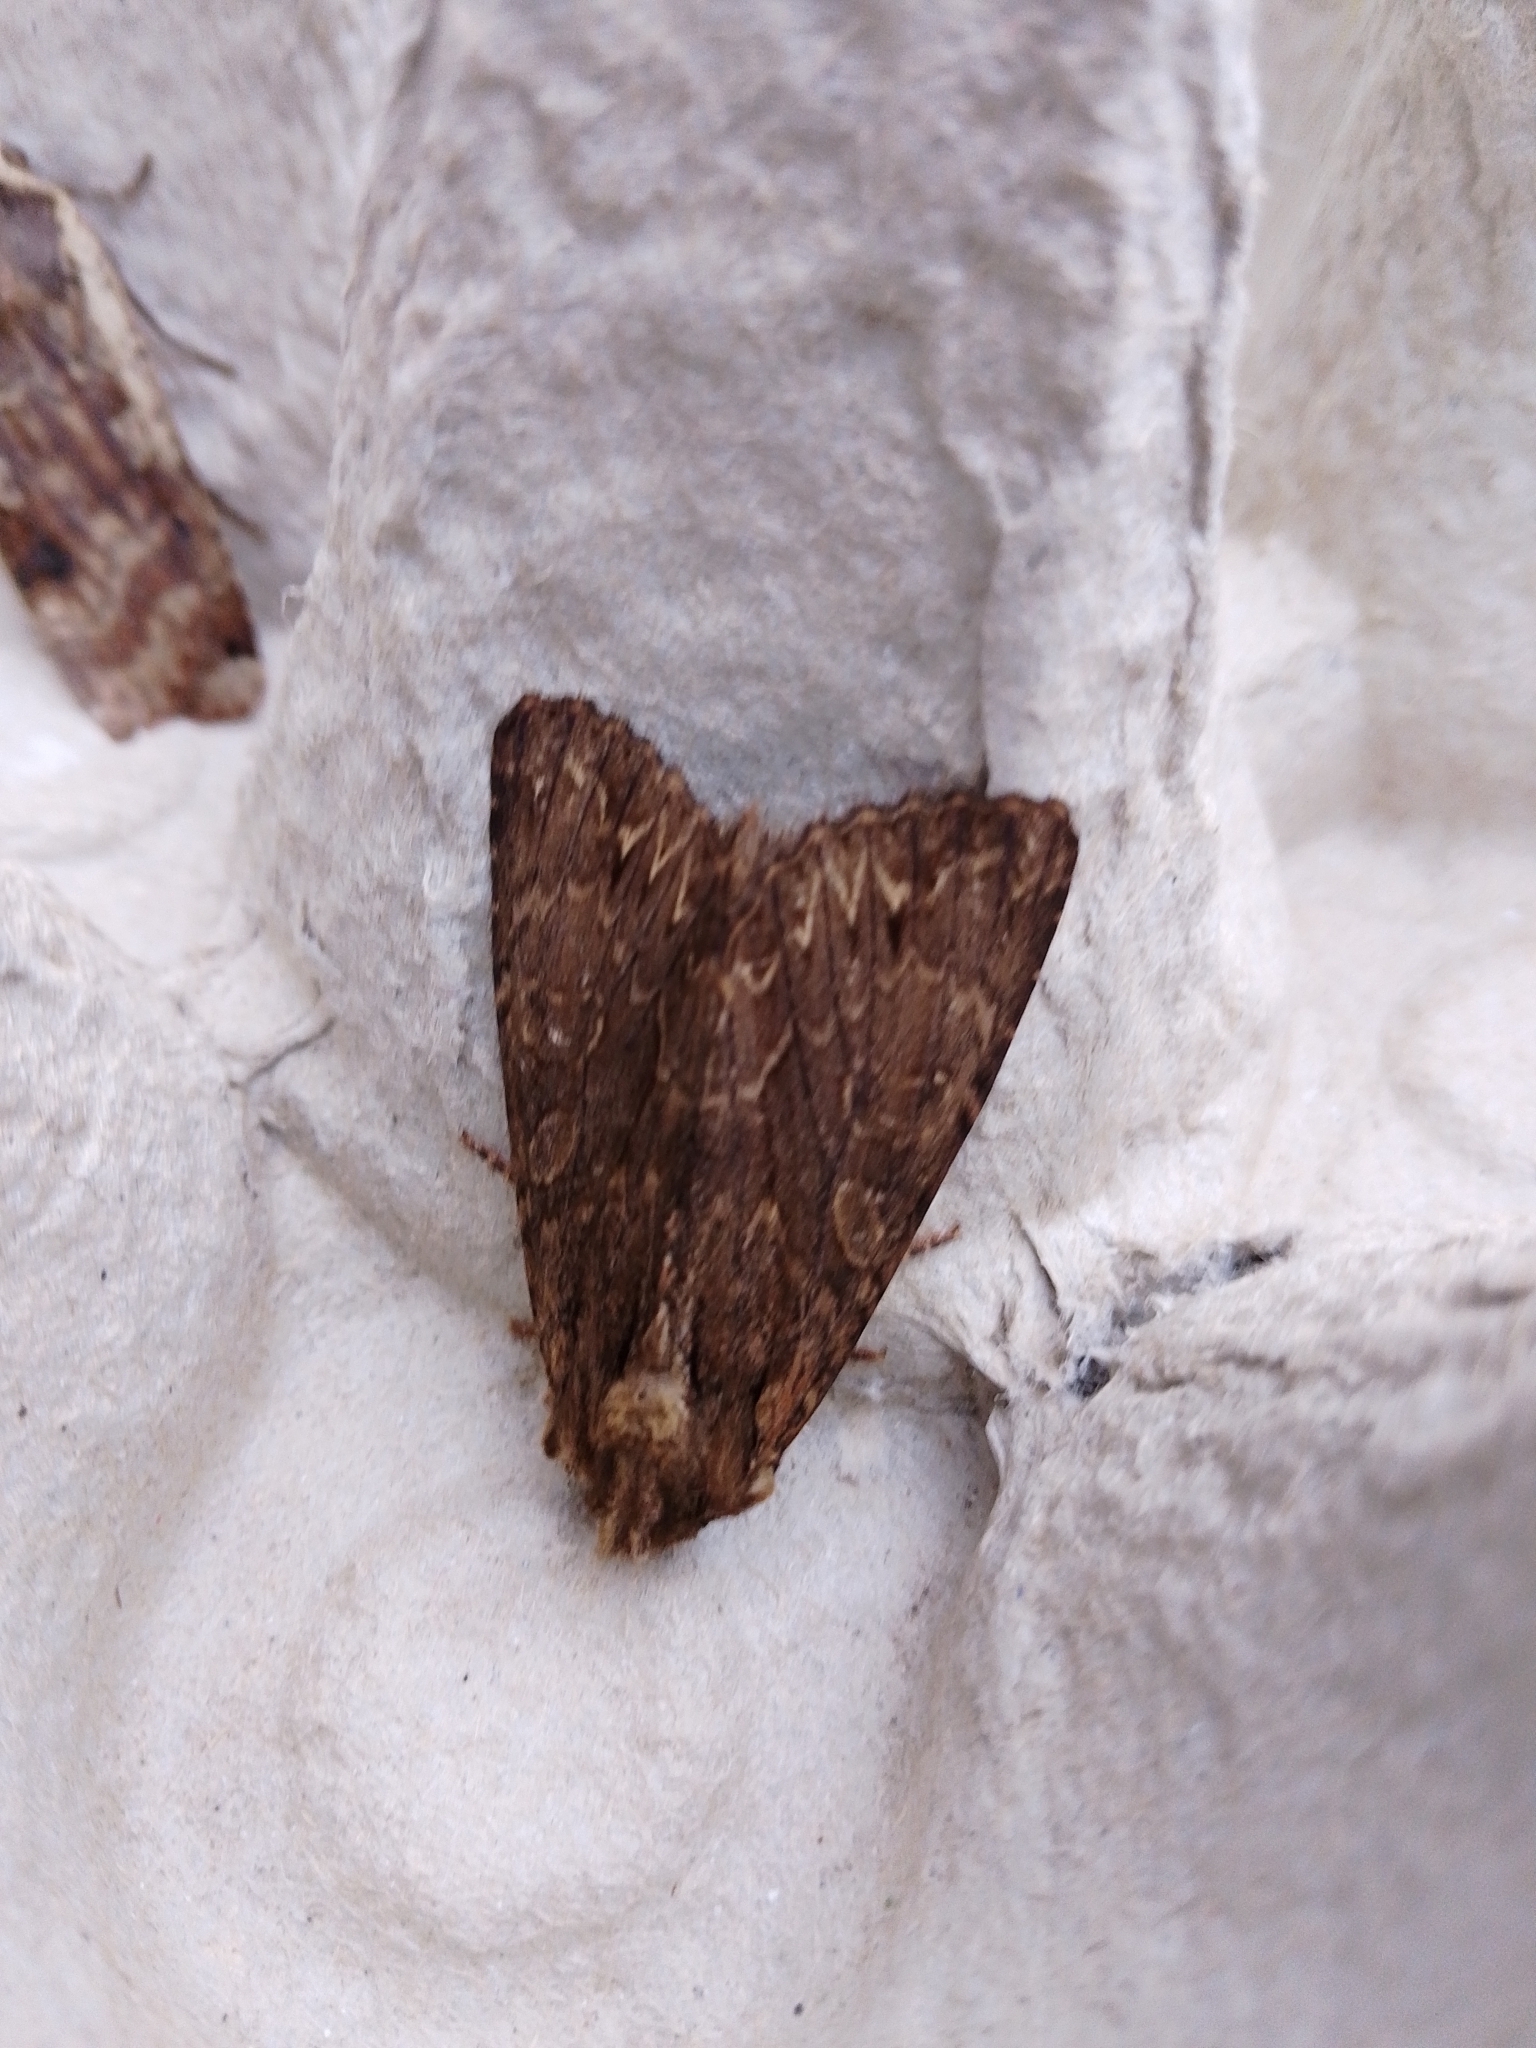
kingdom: Animalia
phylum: Arthropoda
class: Insecta
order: Lepidoptera
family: Noctuidae
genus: Apamea
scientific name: Apamea monoglypha
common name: Dark arches
